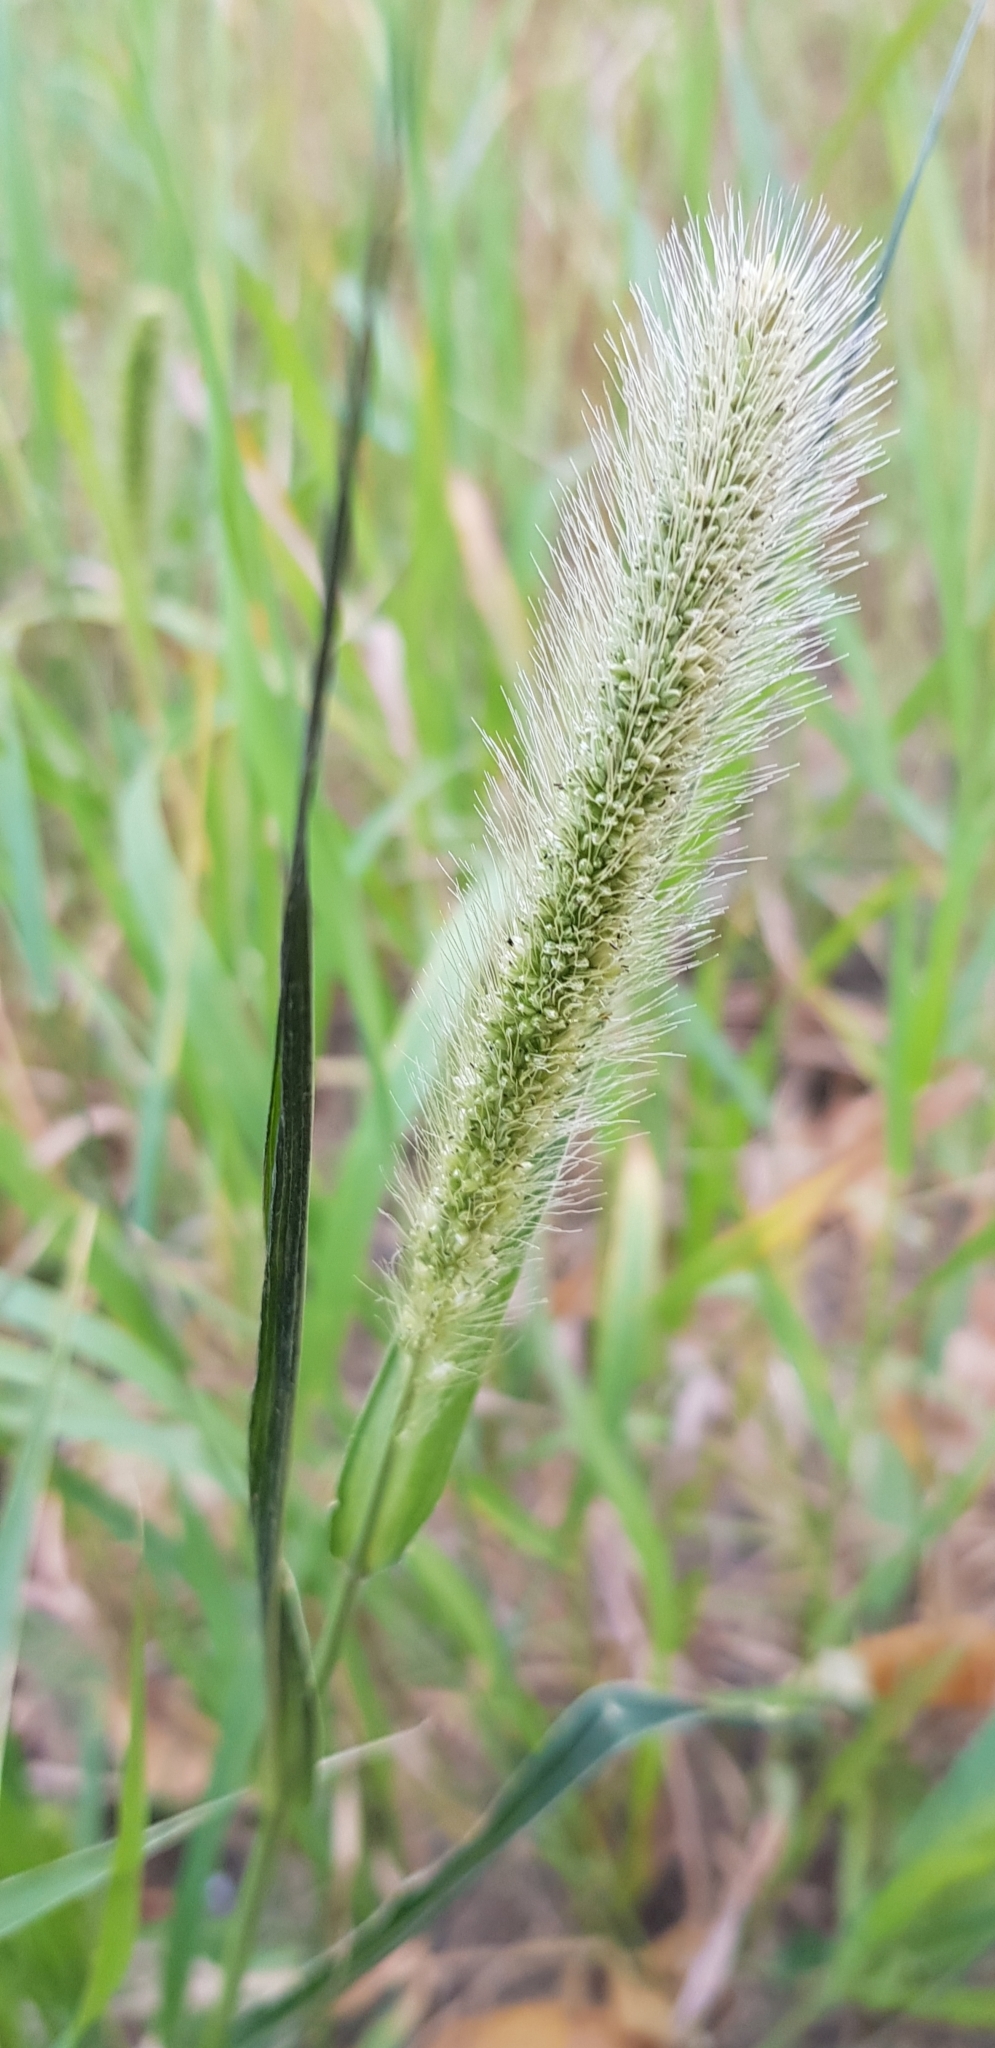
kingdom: Plantae
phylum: Tracheophyta
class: Liliopsida
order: Poales
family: Poaceae
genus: Setaria
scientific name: Setaria viridis
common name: Green bristlegrass
